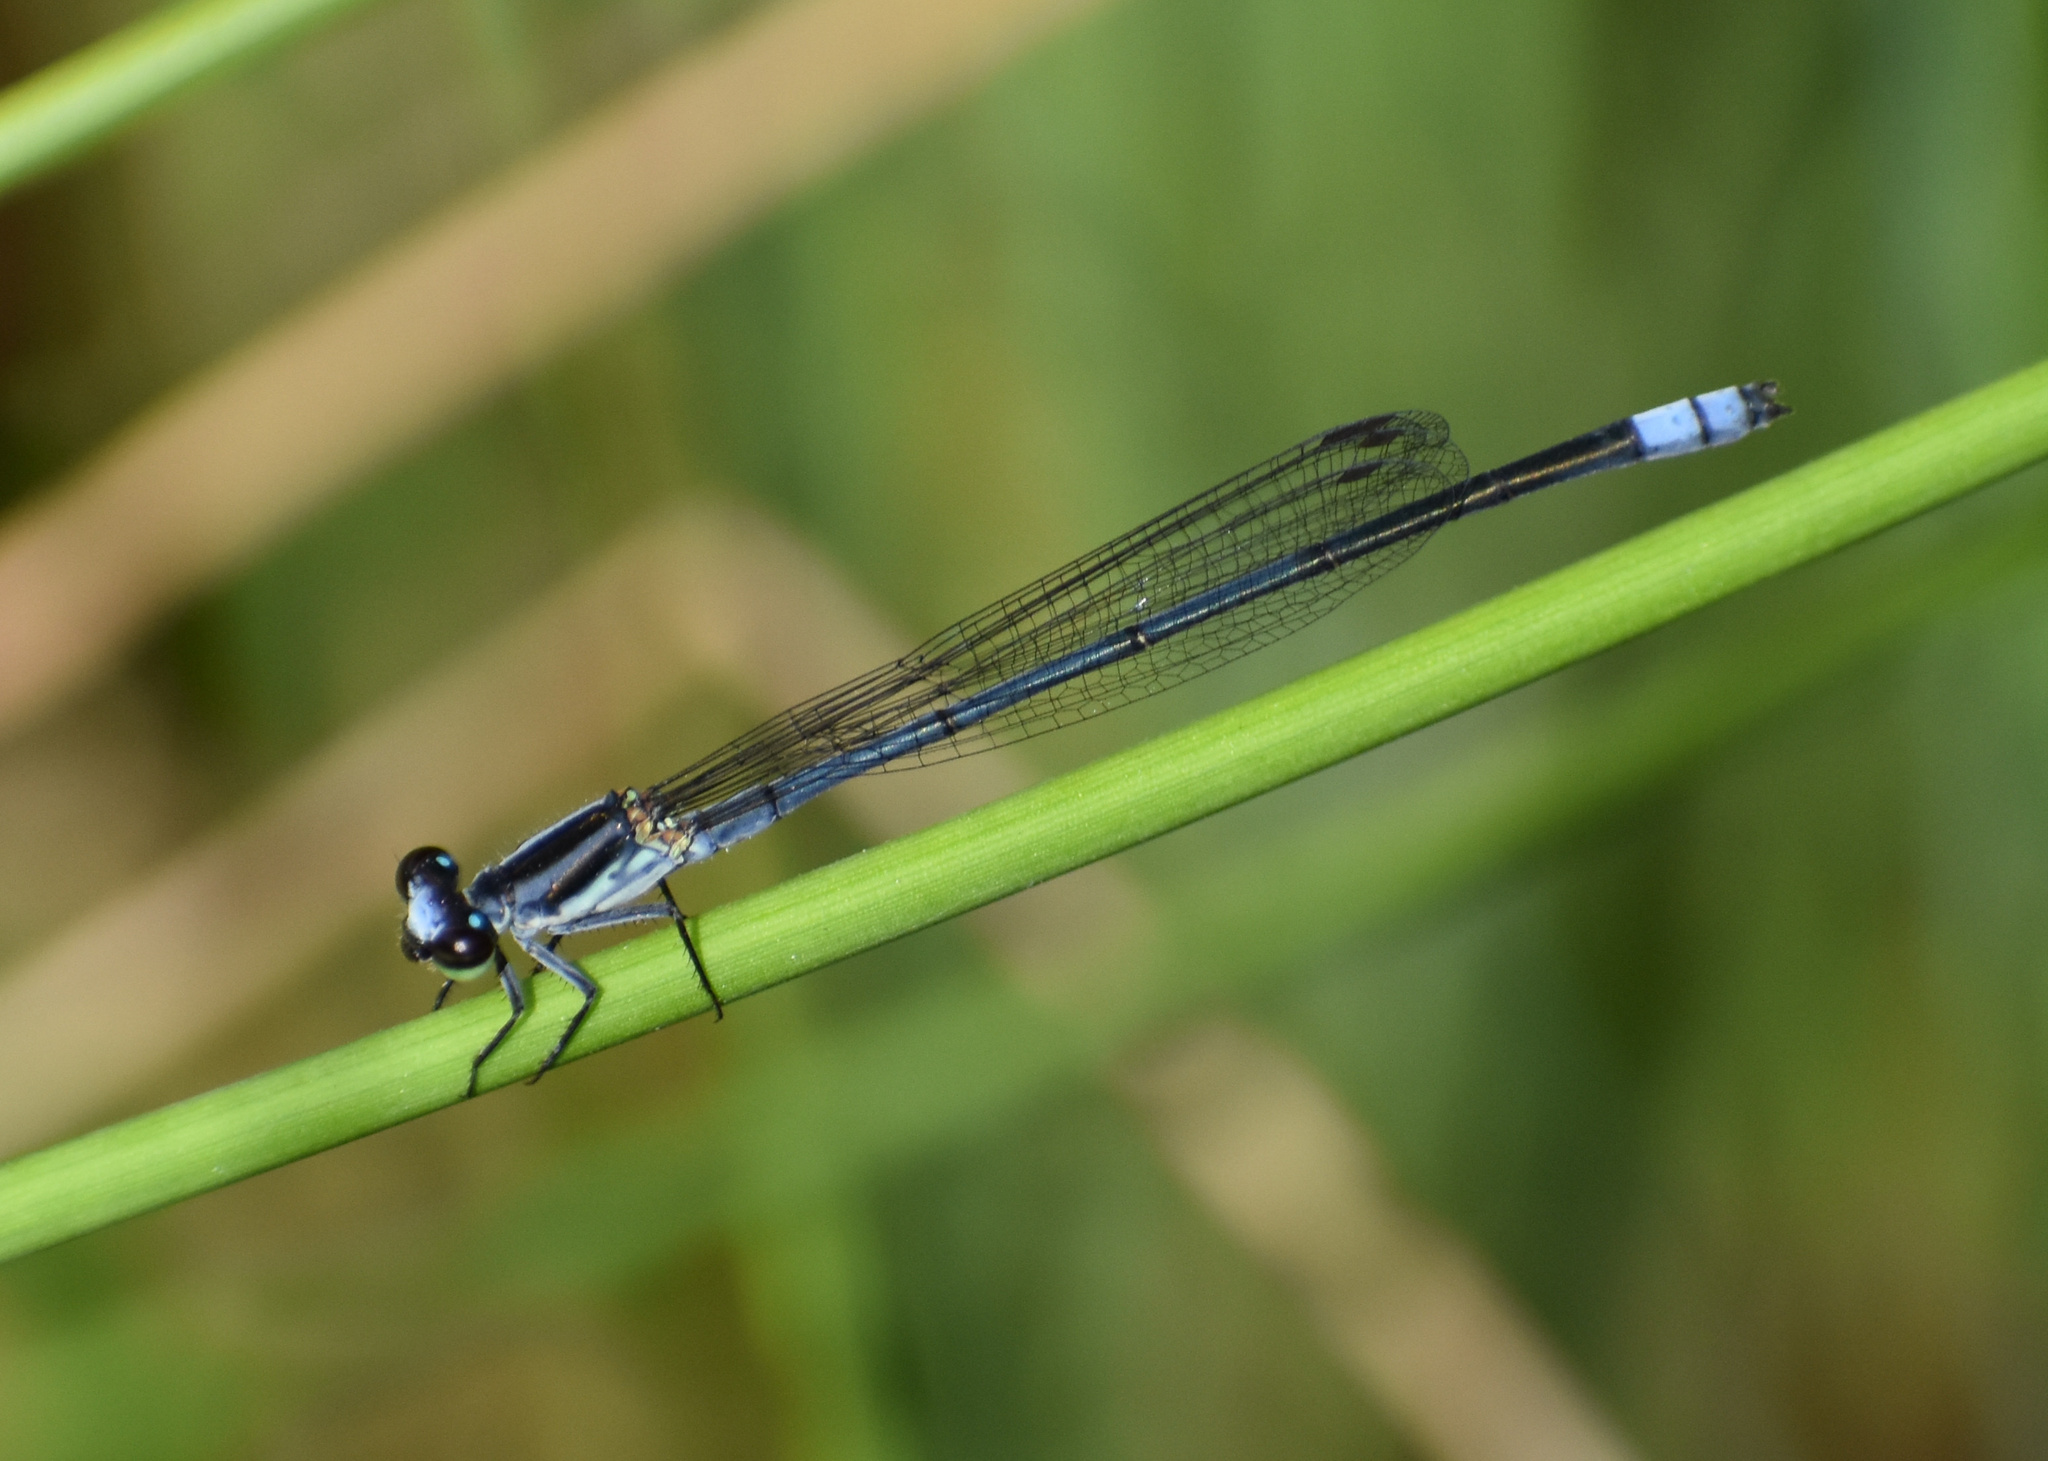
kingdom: Animalia
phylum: Arthropoda
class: Insecta
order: Odonata
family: Coenagrionidae
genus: Pseudagrion
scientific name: Pseudagrion kersteni
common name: Powder-faced sprite
